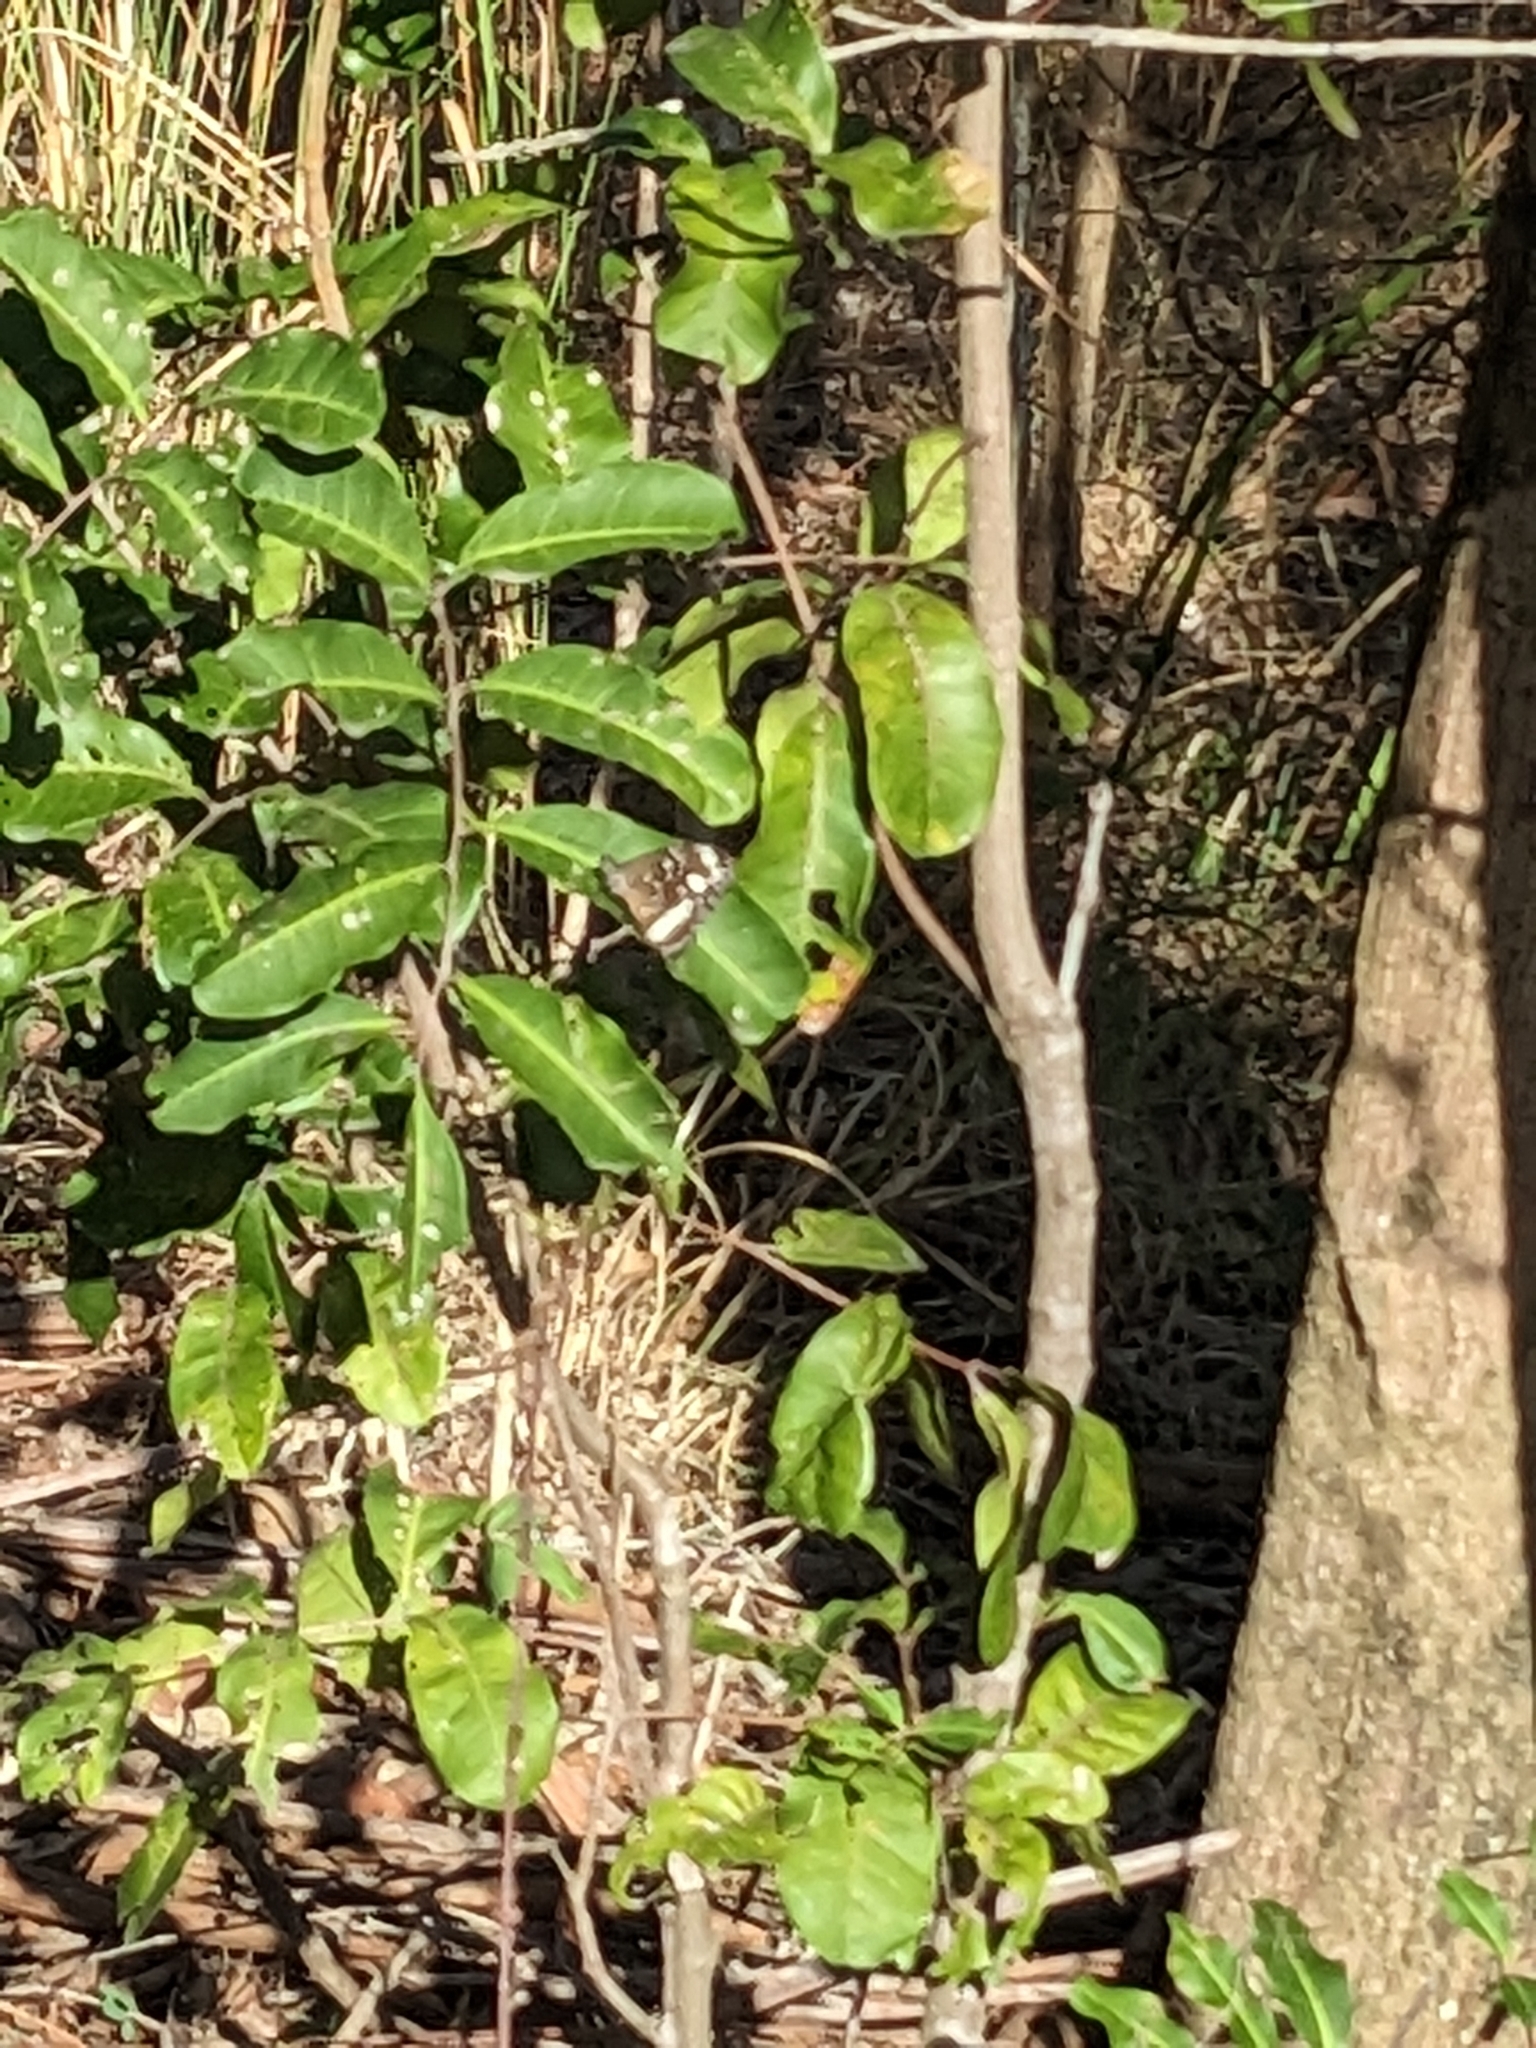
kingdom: Animalia
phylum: Arthropoda
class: Insecta
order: Lepidoptera
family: Nymphalidae
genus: Euploea
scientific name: Euploea core
